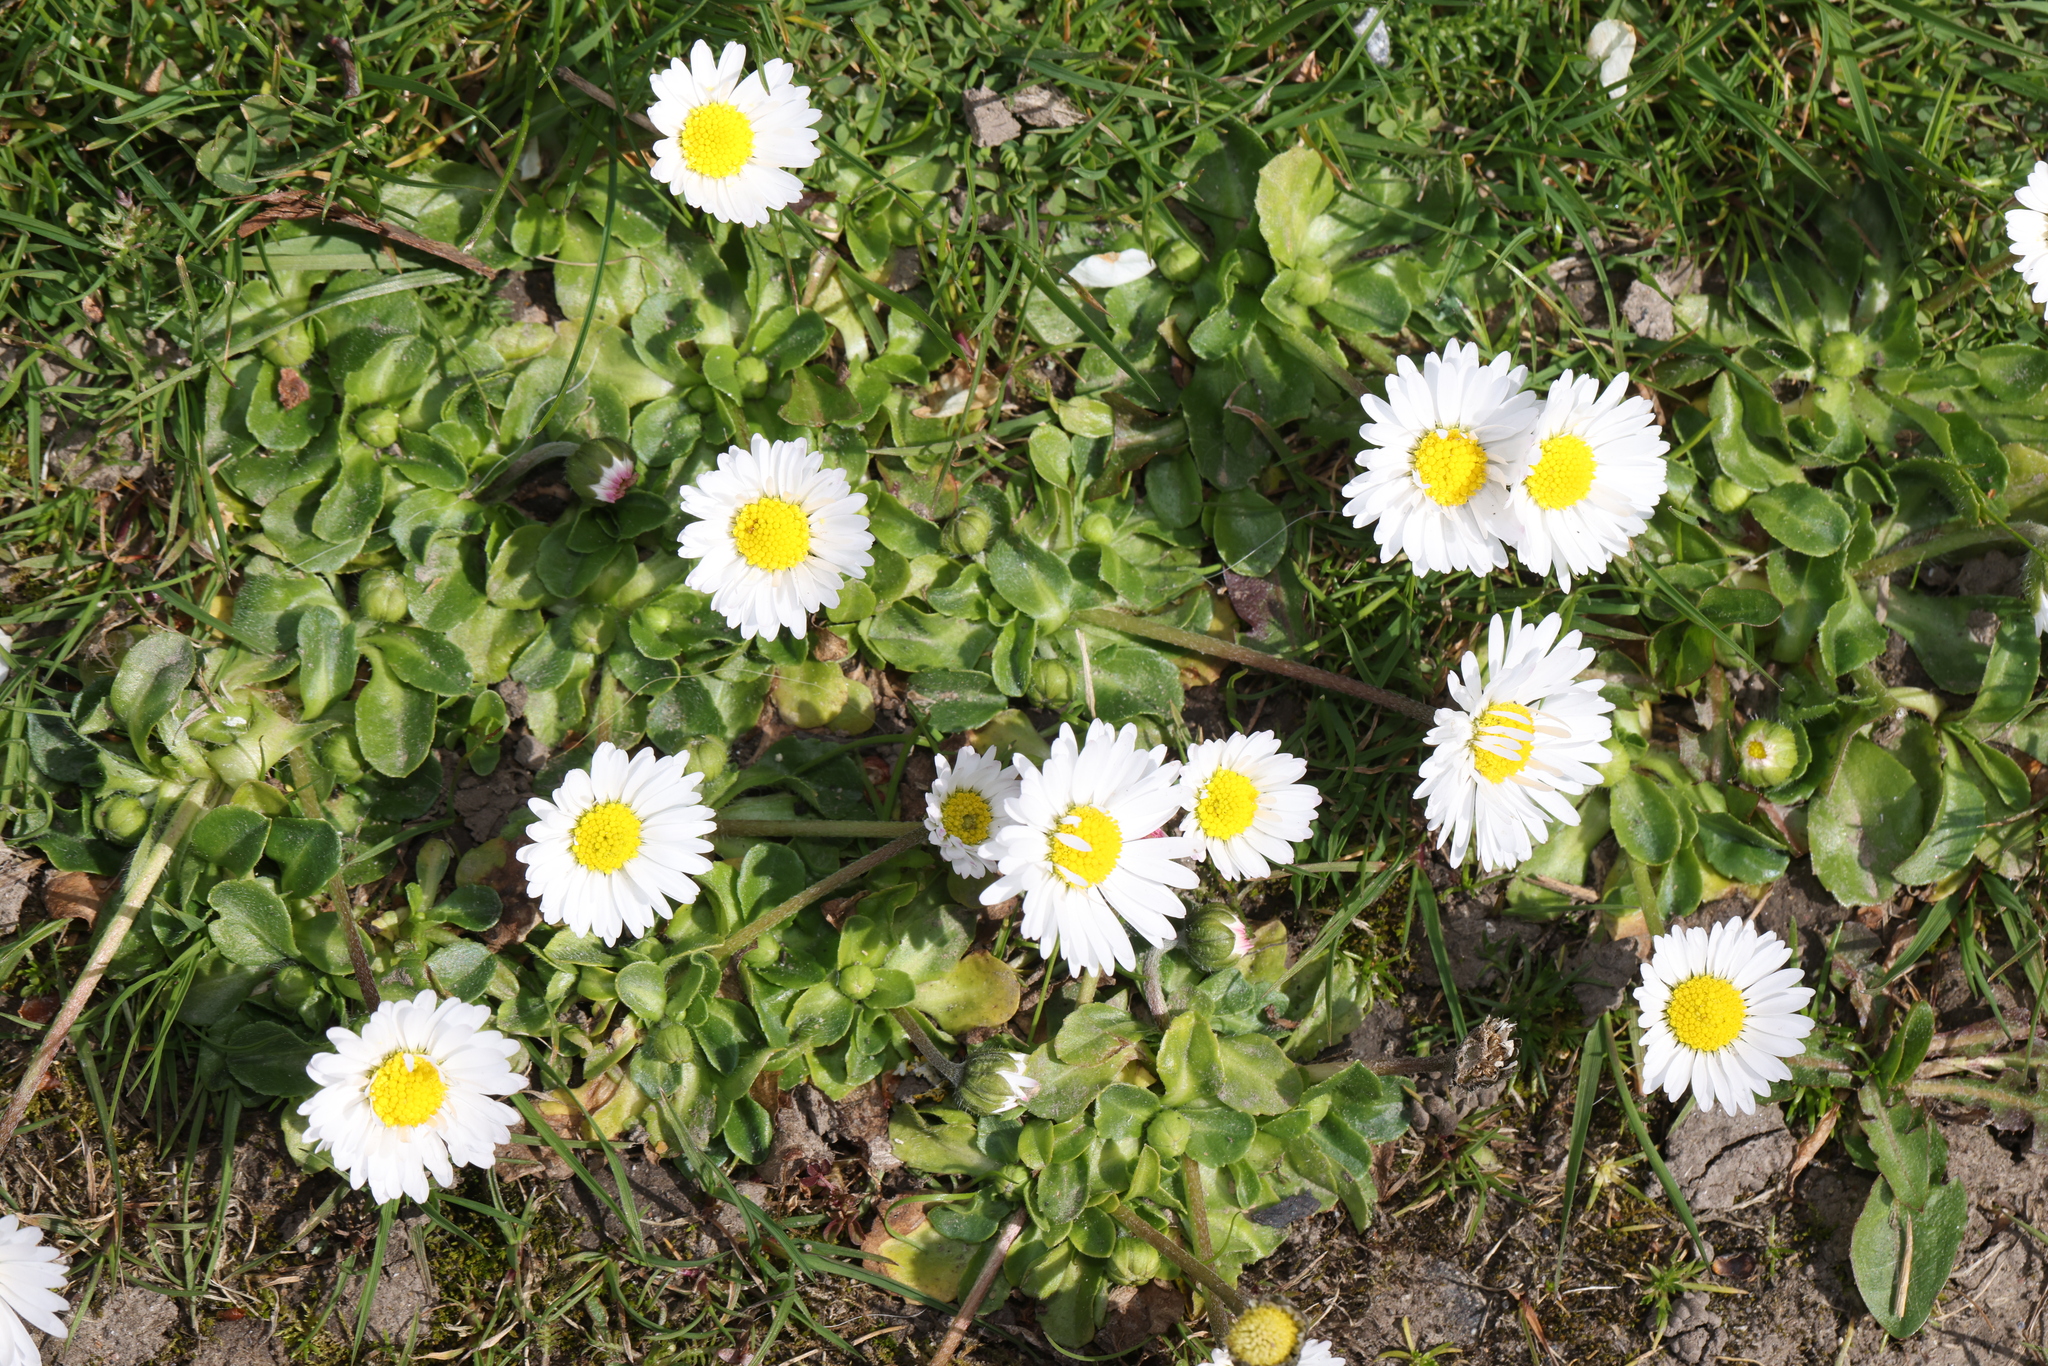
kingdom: Plantae
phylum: Tracheophyta
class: Magnoliopsida
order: Asterales
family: Asteraceae
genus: Bellis
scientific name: Bellis perennis
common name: Lawndaisy
